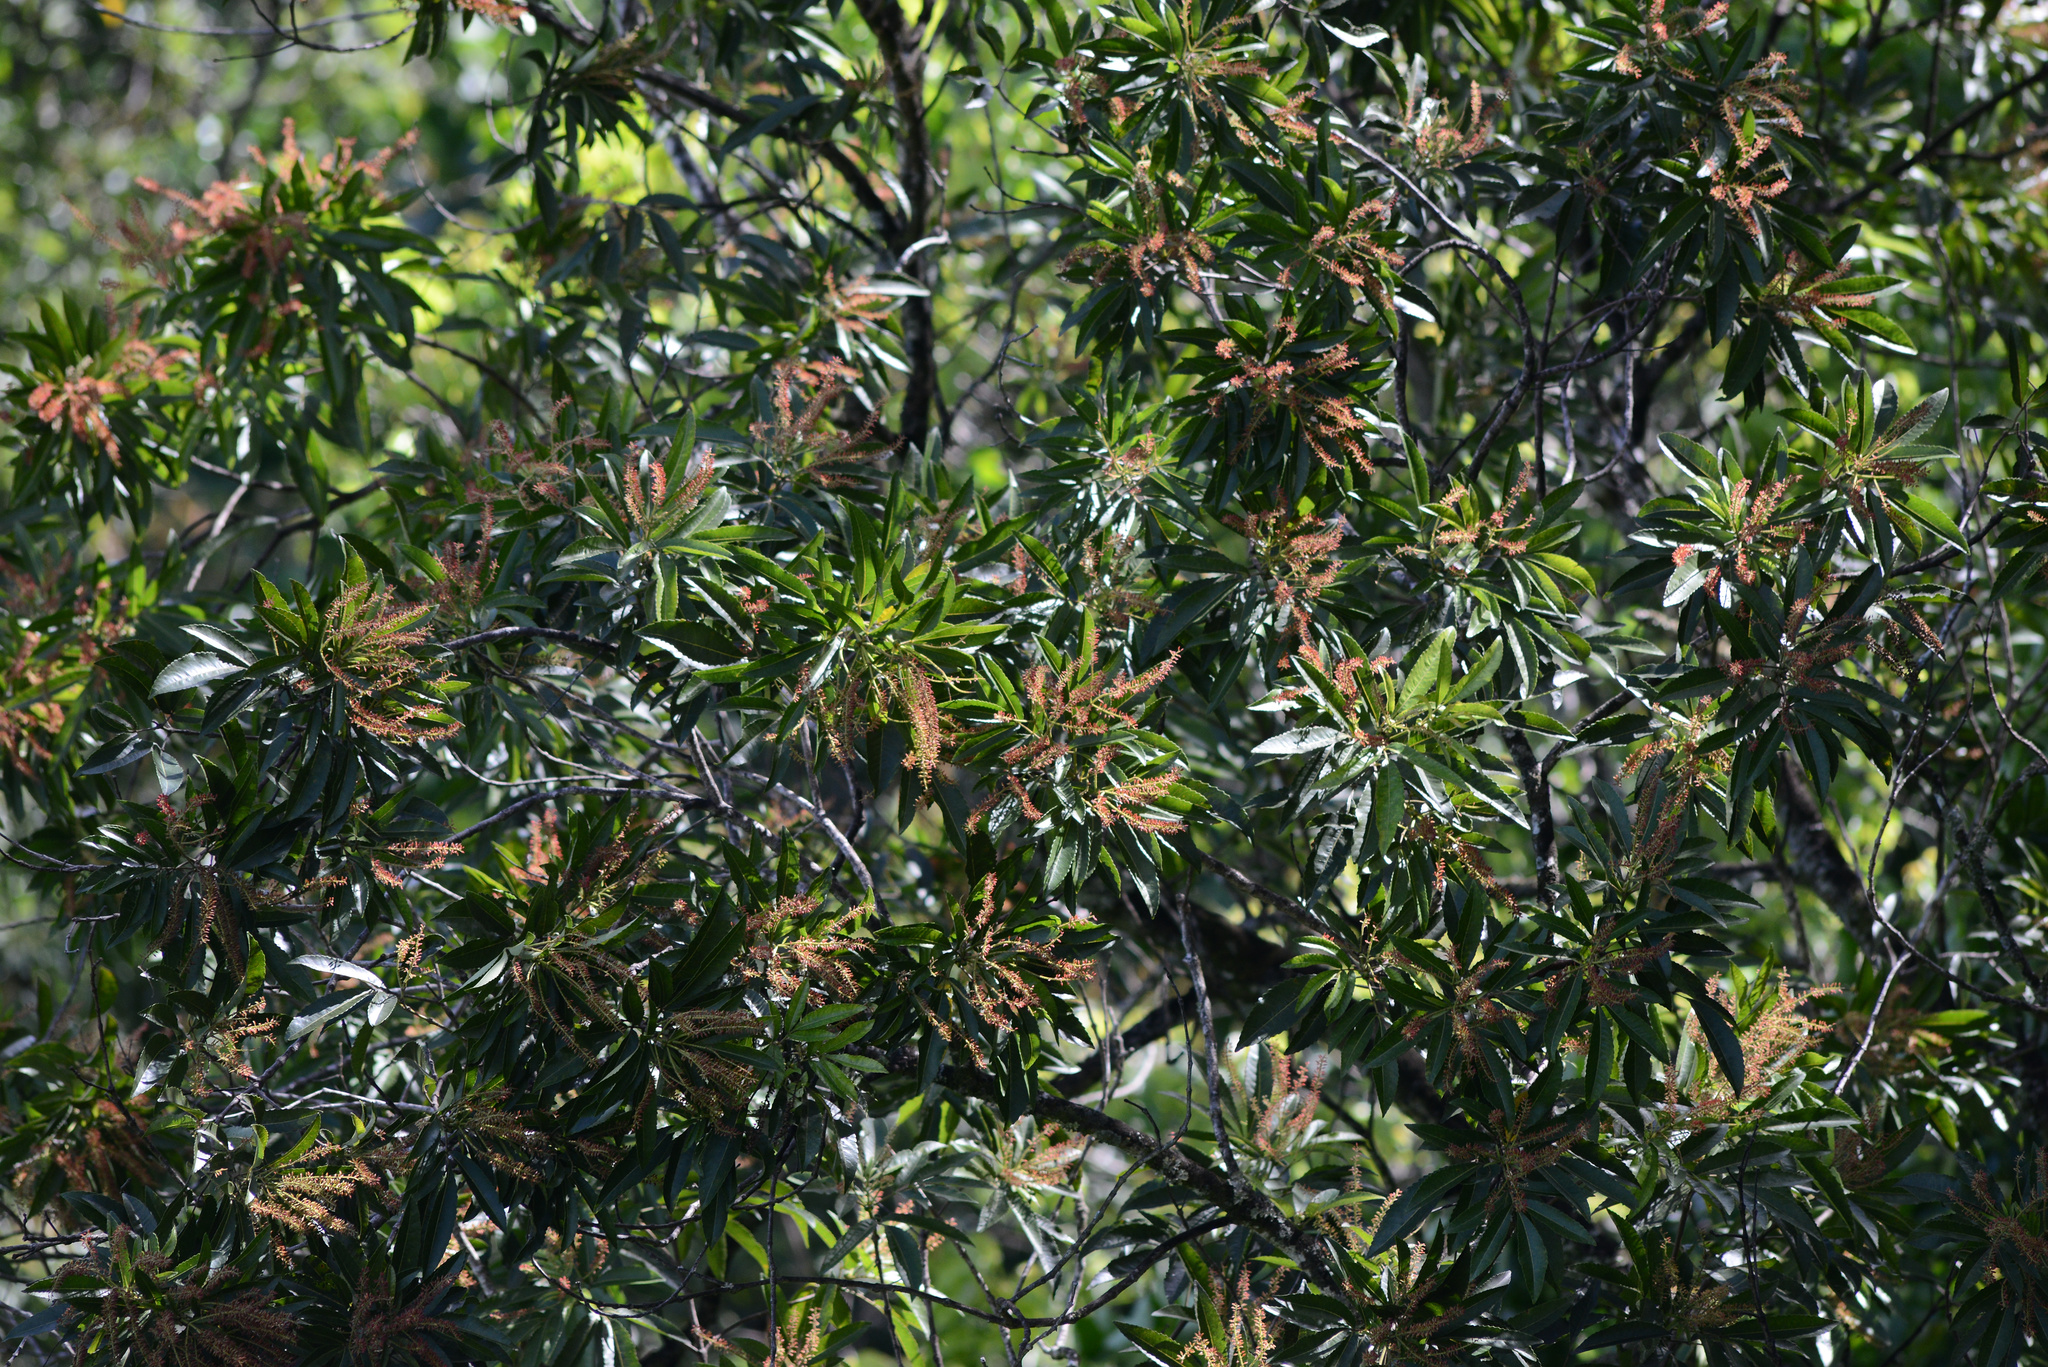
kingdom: Plantae
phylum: Tracheophyta
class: Magnoliopsida
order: Oxalidales
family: Cunoniaceae
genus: Pterophylla
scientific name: Pterophylla samoensis
